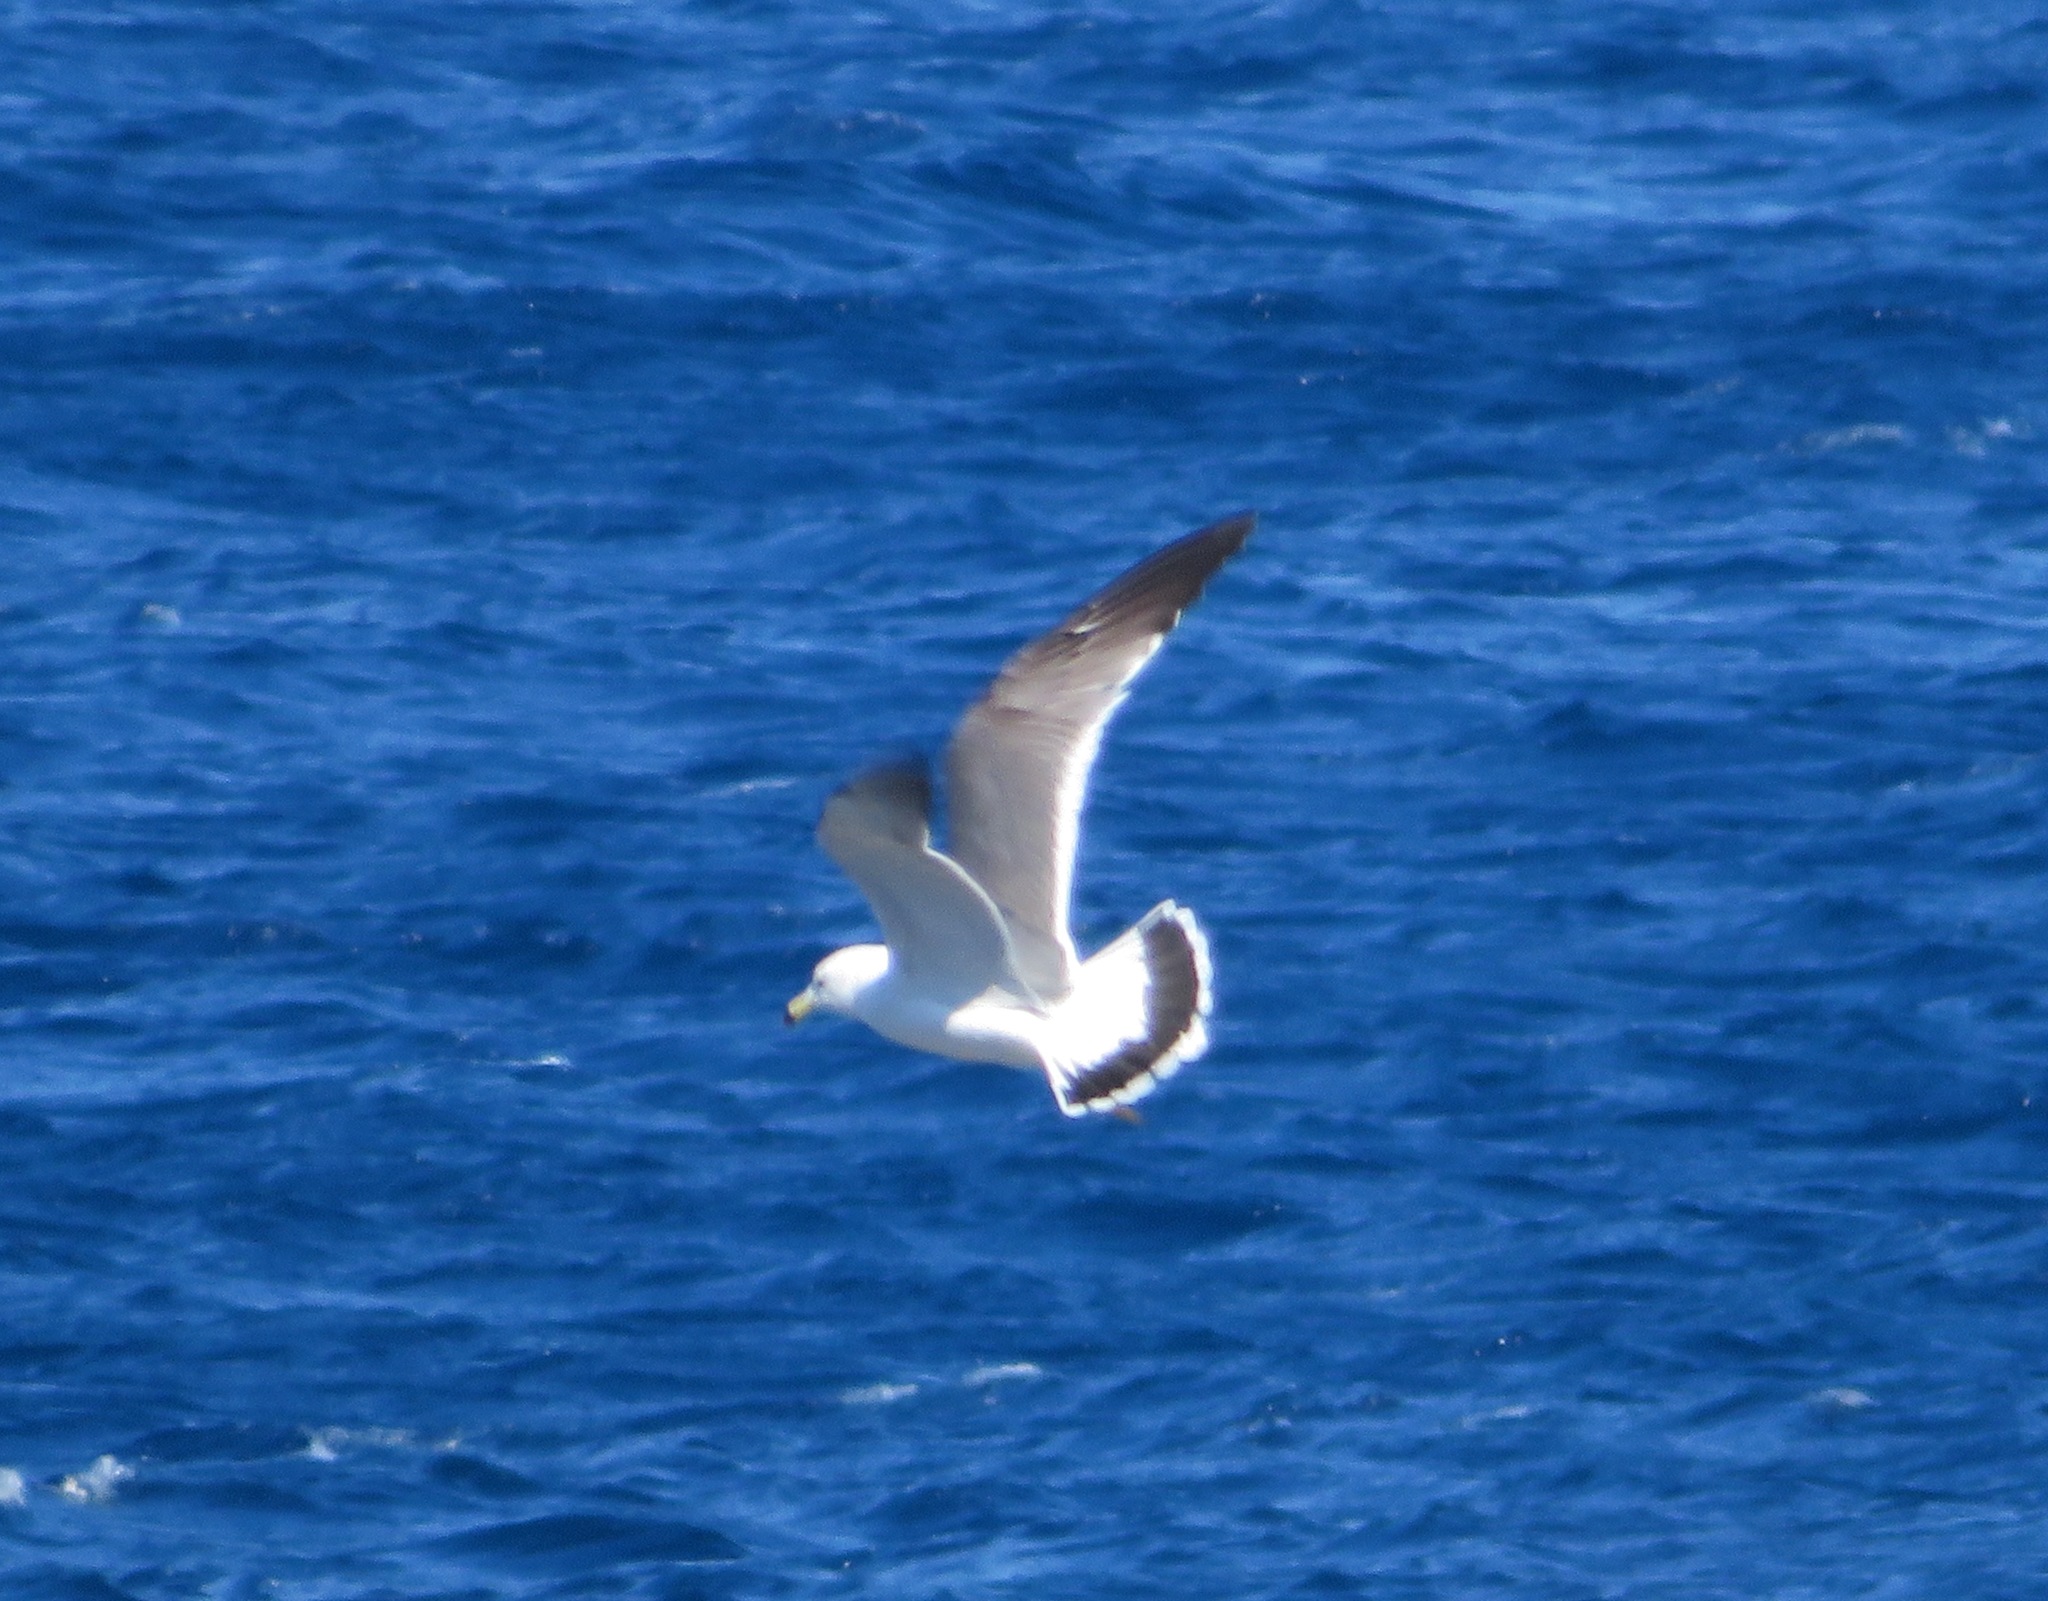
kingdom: Animalia
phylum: Chordata
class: Aves
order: Charadriiformes
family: Laridae
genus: Larus
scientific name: Larus crassirostris
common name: Black-tailed gull
